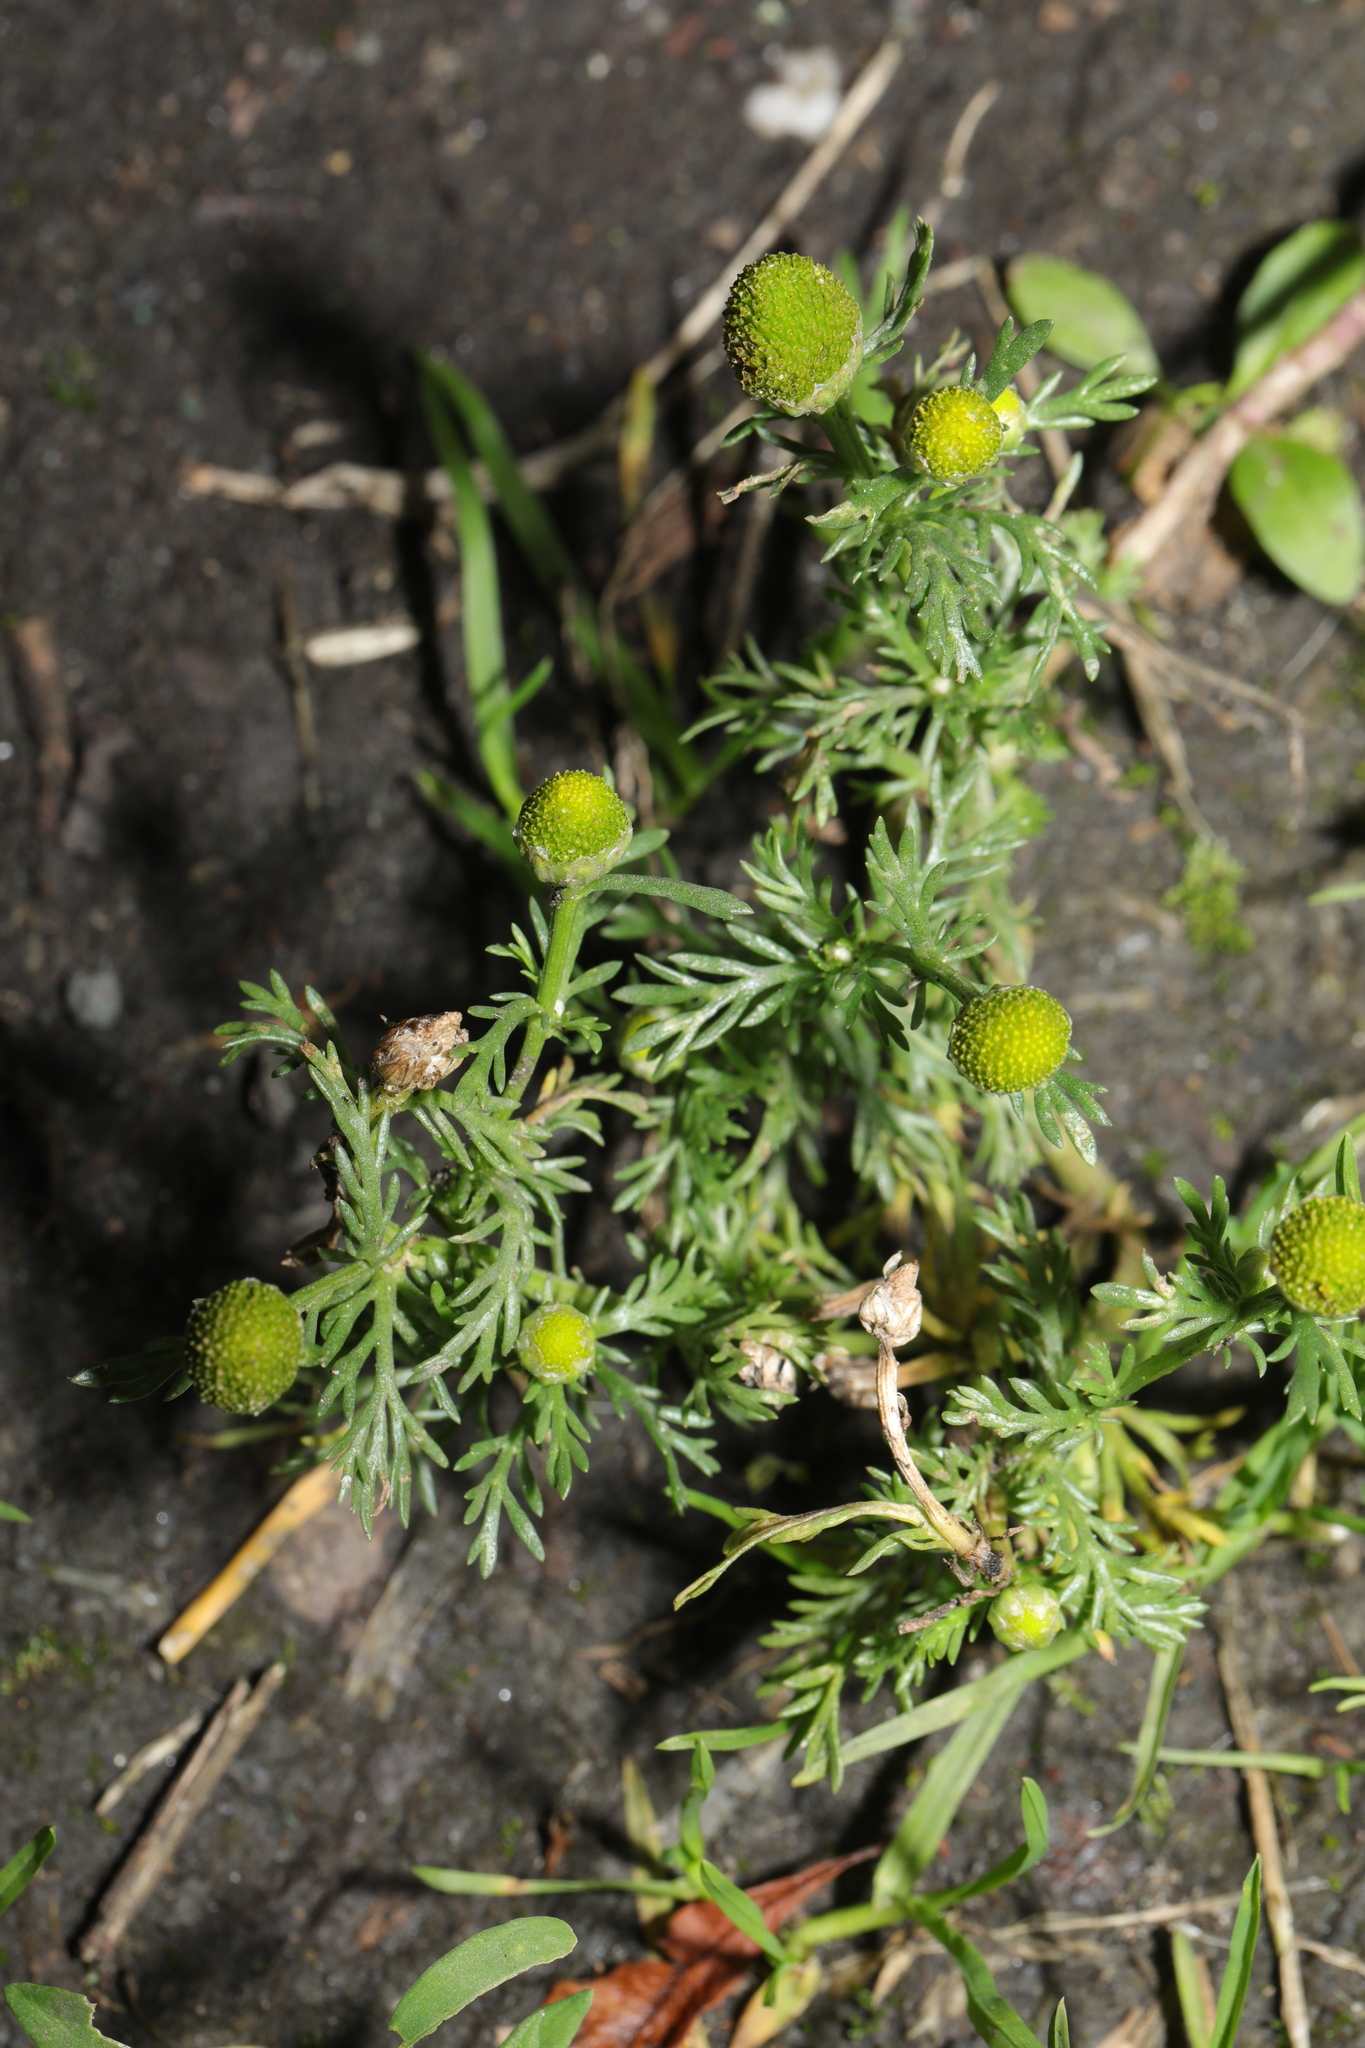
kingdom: Plantae
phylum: Tracheophyta
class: Magnoliopsida
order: Asterales
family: Asteraceae
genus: Matricaria
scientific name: Matricaria discoidea
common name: Disc mayweed
